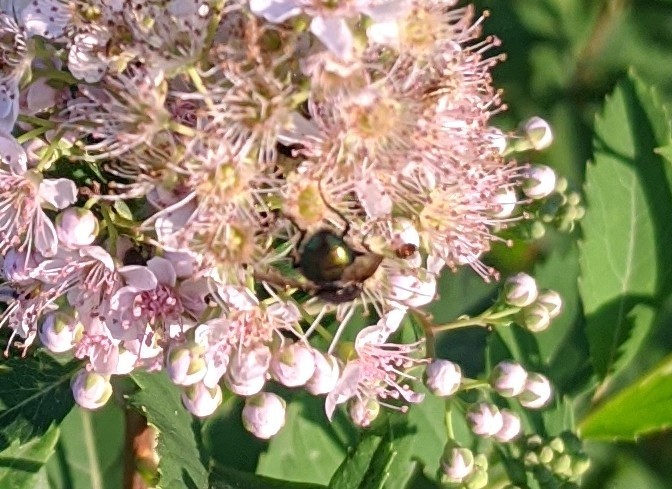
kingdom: Animalia
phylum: Arthropoda
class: Insecta
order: Diptera
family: Calliphoridae
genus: Lucilia
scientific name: Lucilia sericata
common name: Blow fly
